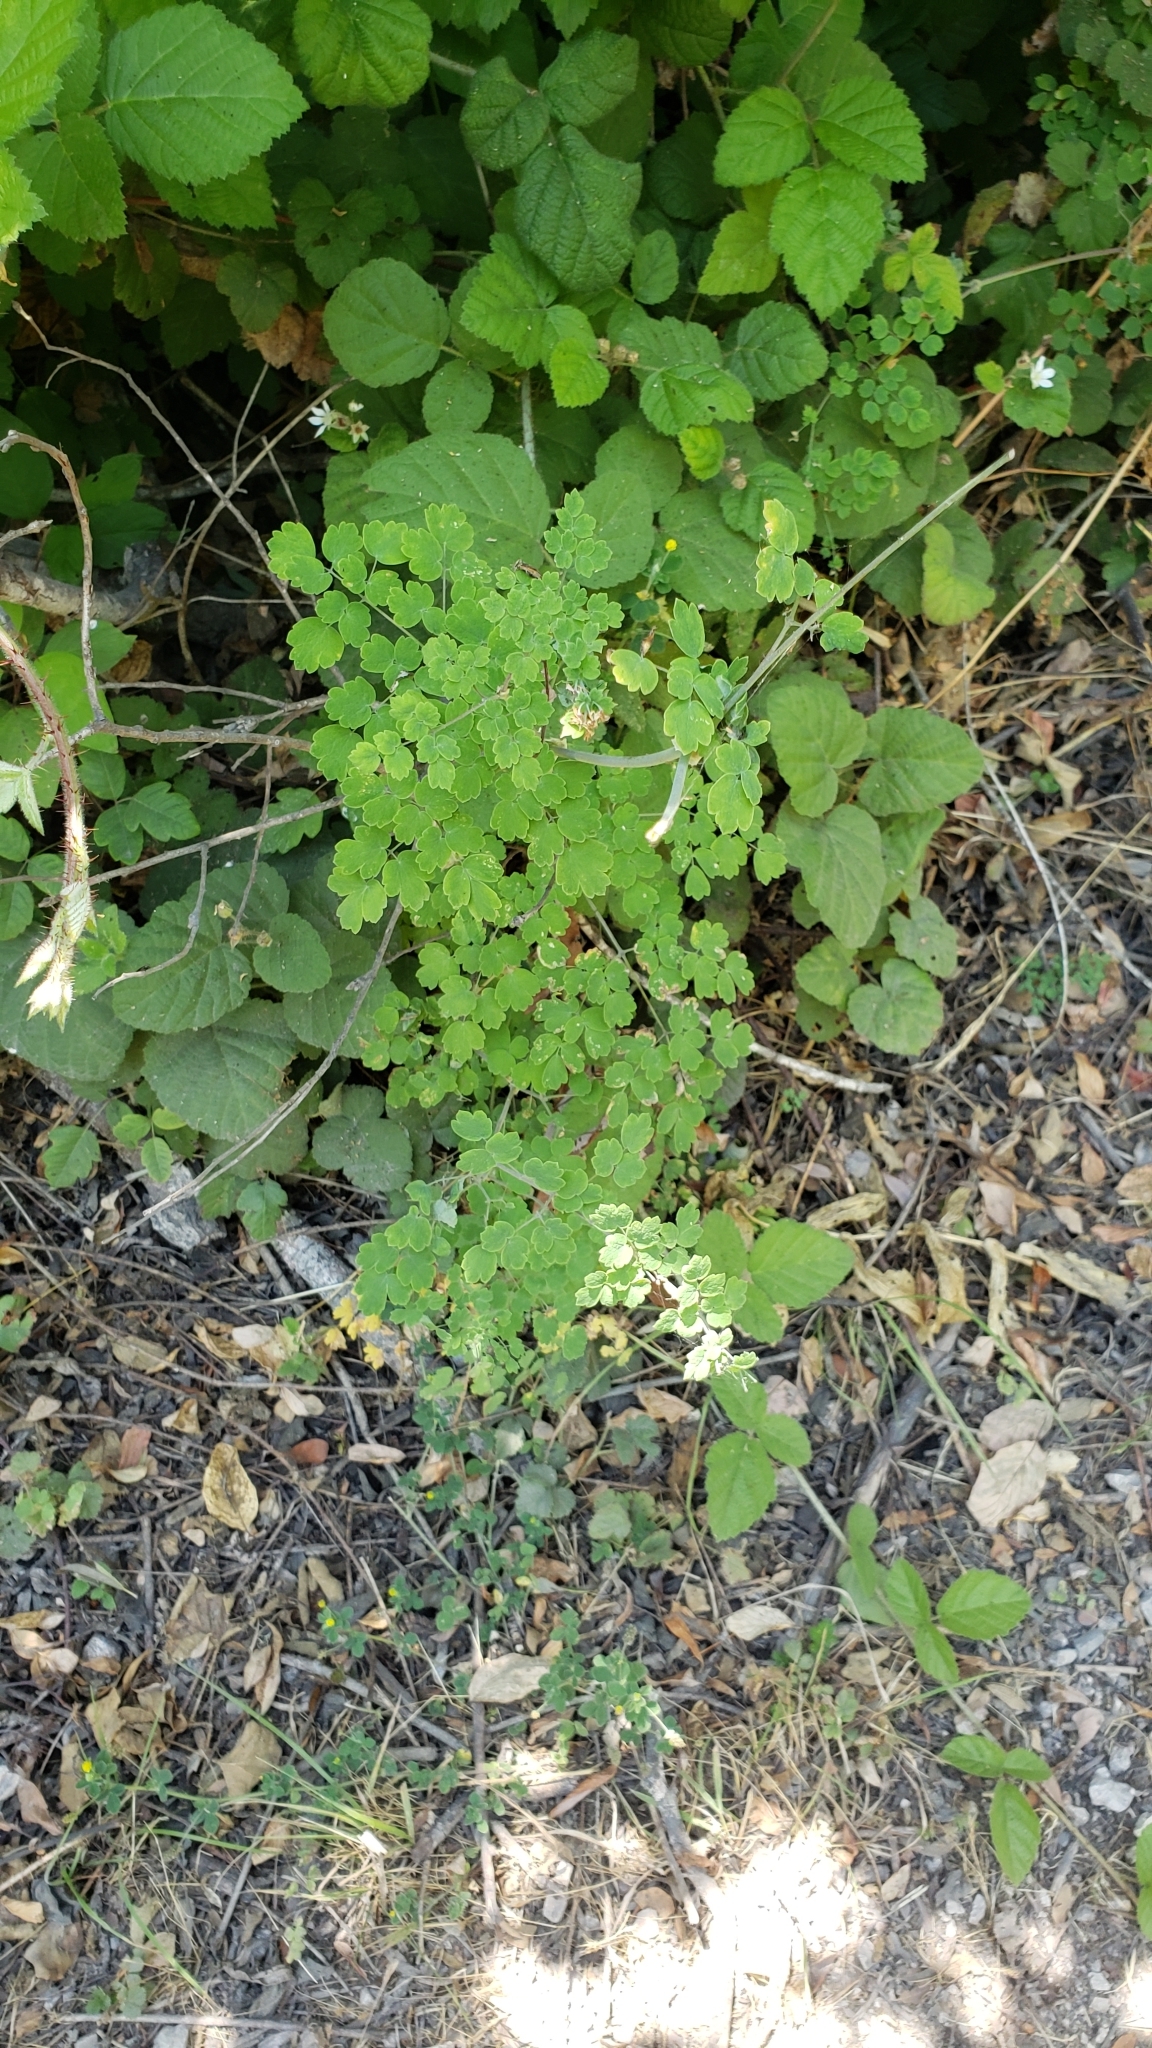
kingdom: Plantae
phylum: Tracheophyta
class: Magnoliopsida
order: Ranunculales
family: Ranunculaceae
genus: Thalictrum
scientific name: Thalictrum fendleri
